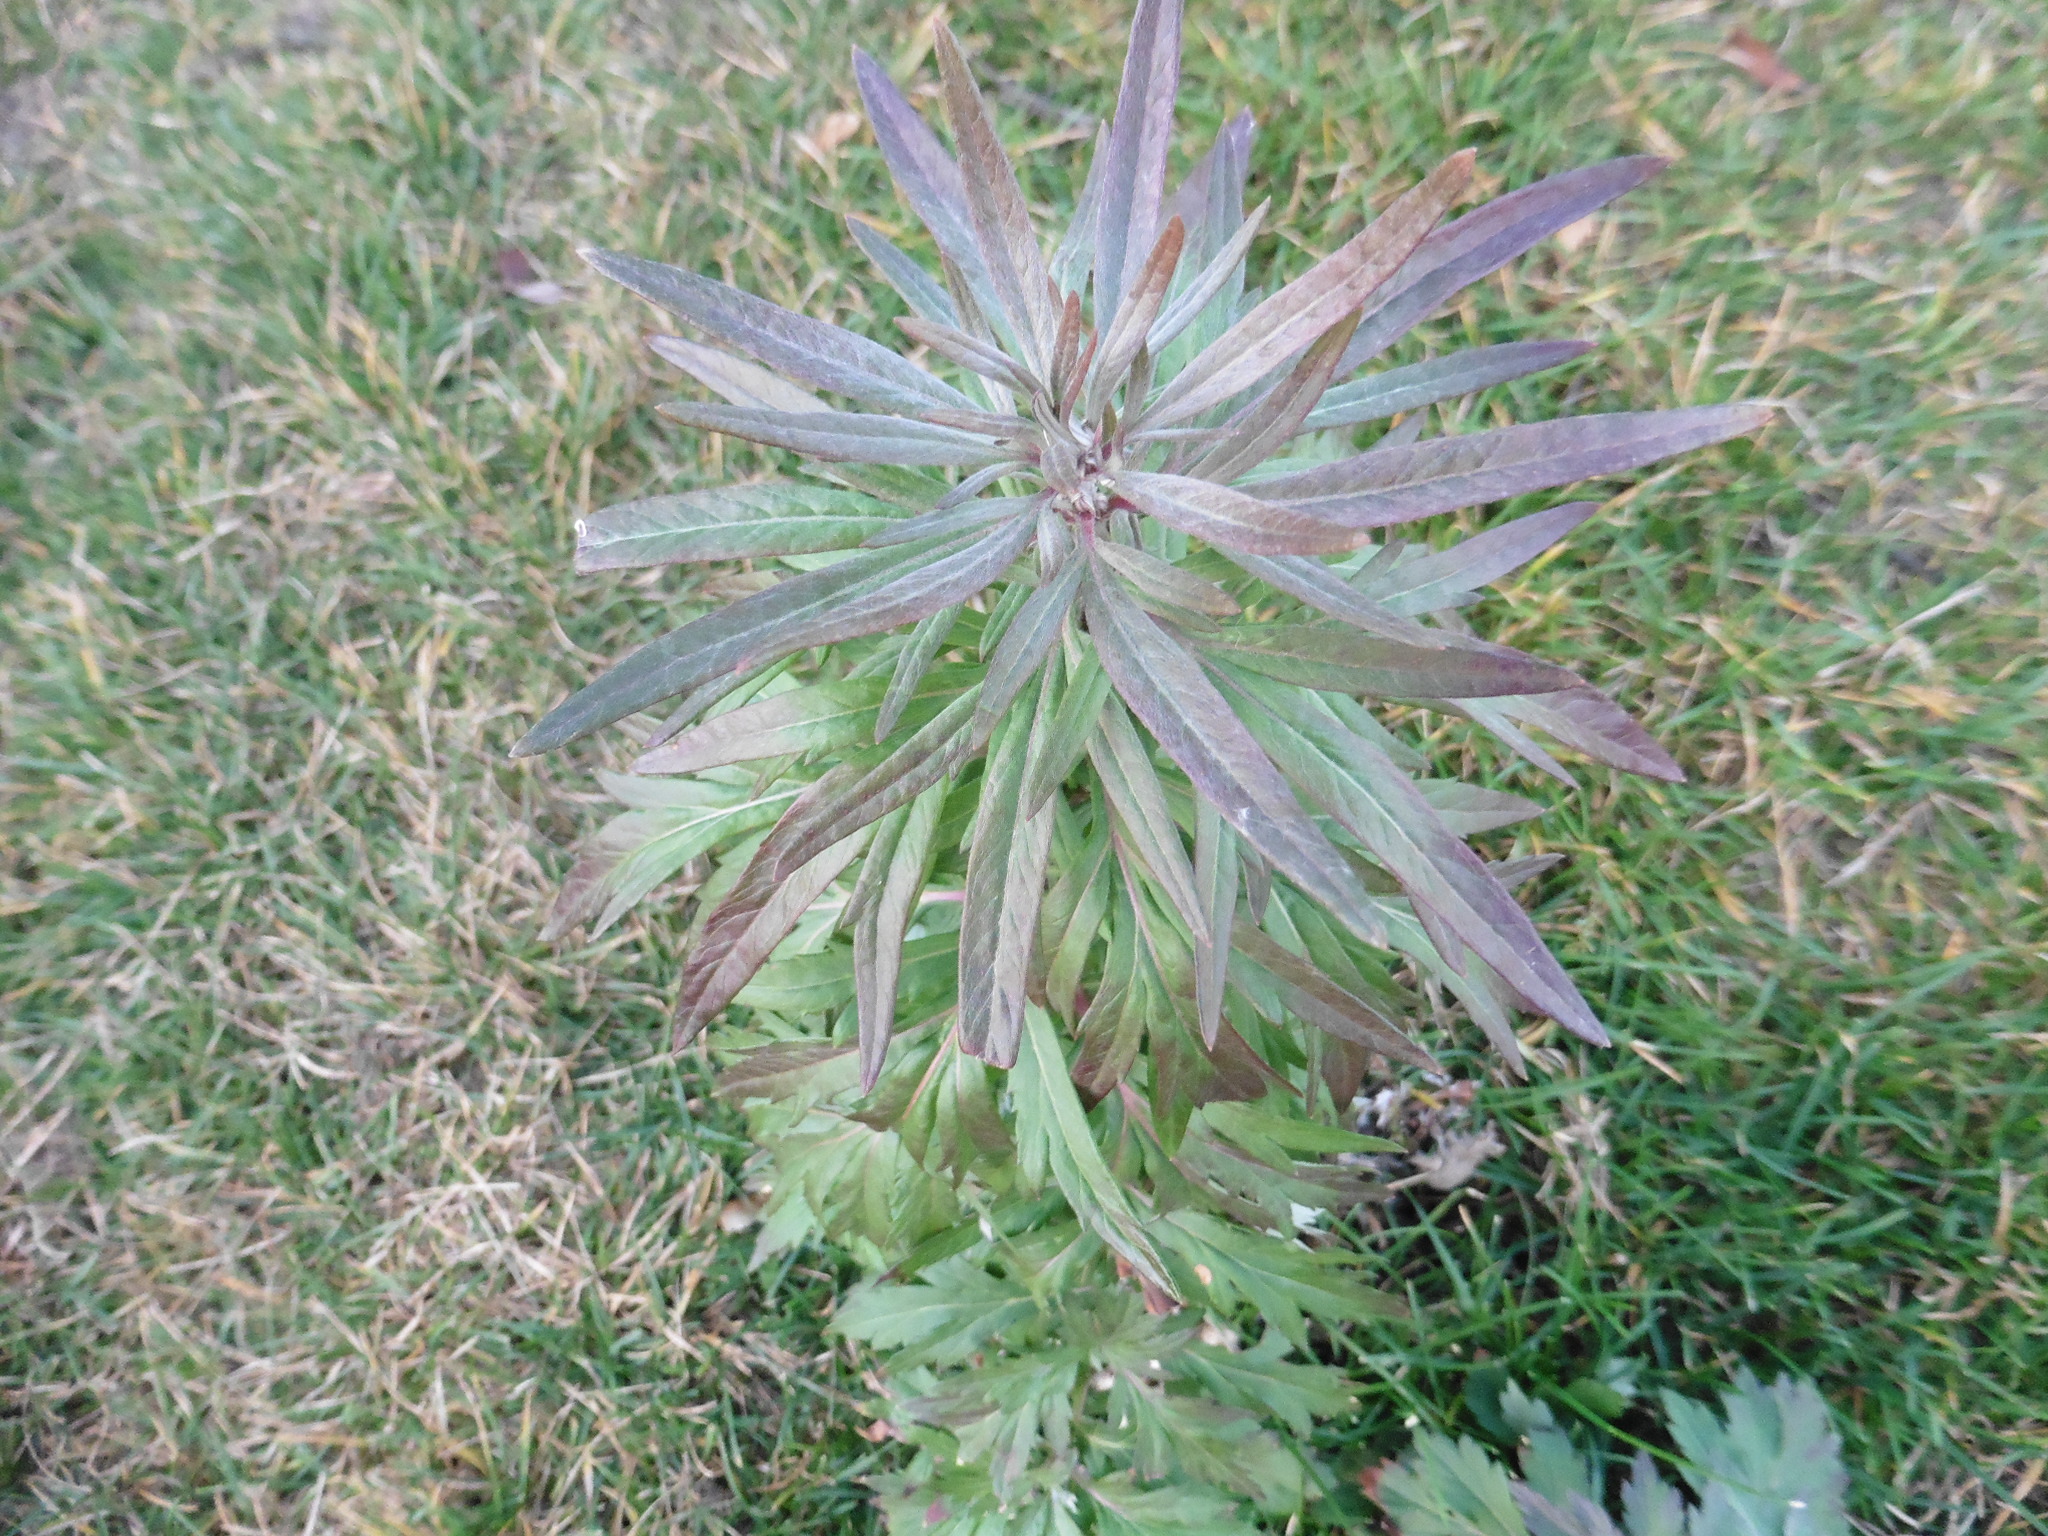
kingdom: Plantae
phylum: Tracheophyta
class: Magnoliopsida
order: Asterales
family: Asteraceae
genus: Artemisia
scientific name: Artemisia vulgaris
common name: Mugwort
